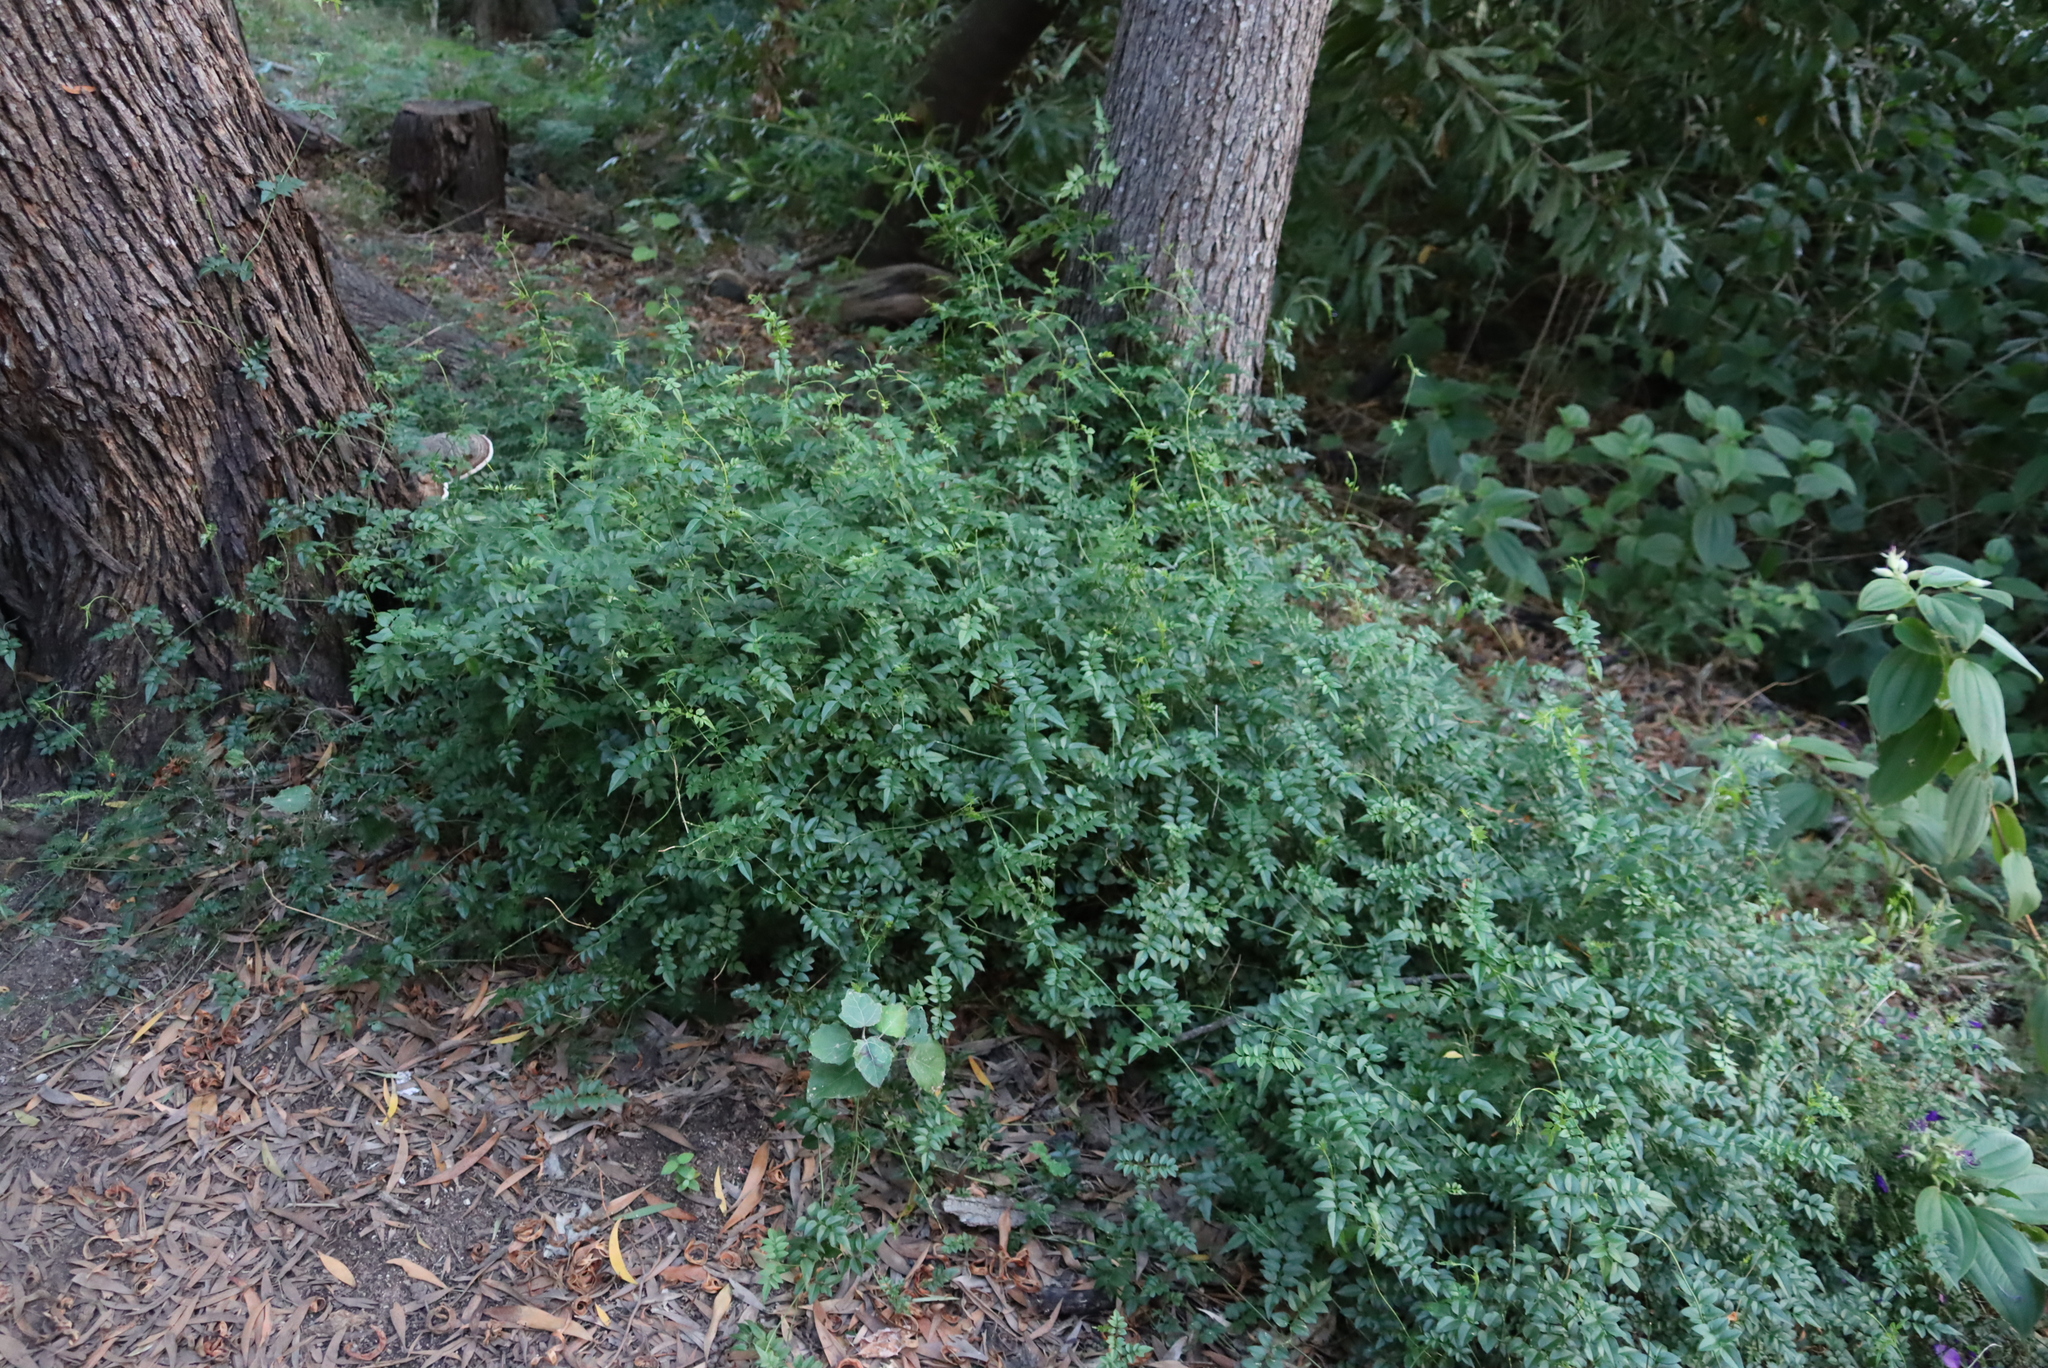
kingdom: Plantae
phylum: Tracheophyta
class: Magnoliopsida
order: Lamiales
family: Oleaceae
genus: Jasminum
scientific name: Jasminum polyanthum
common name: Pink jasmine
